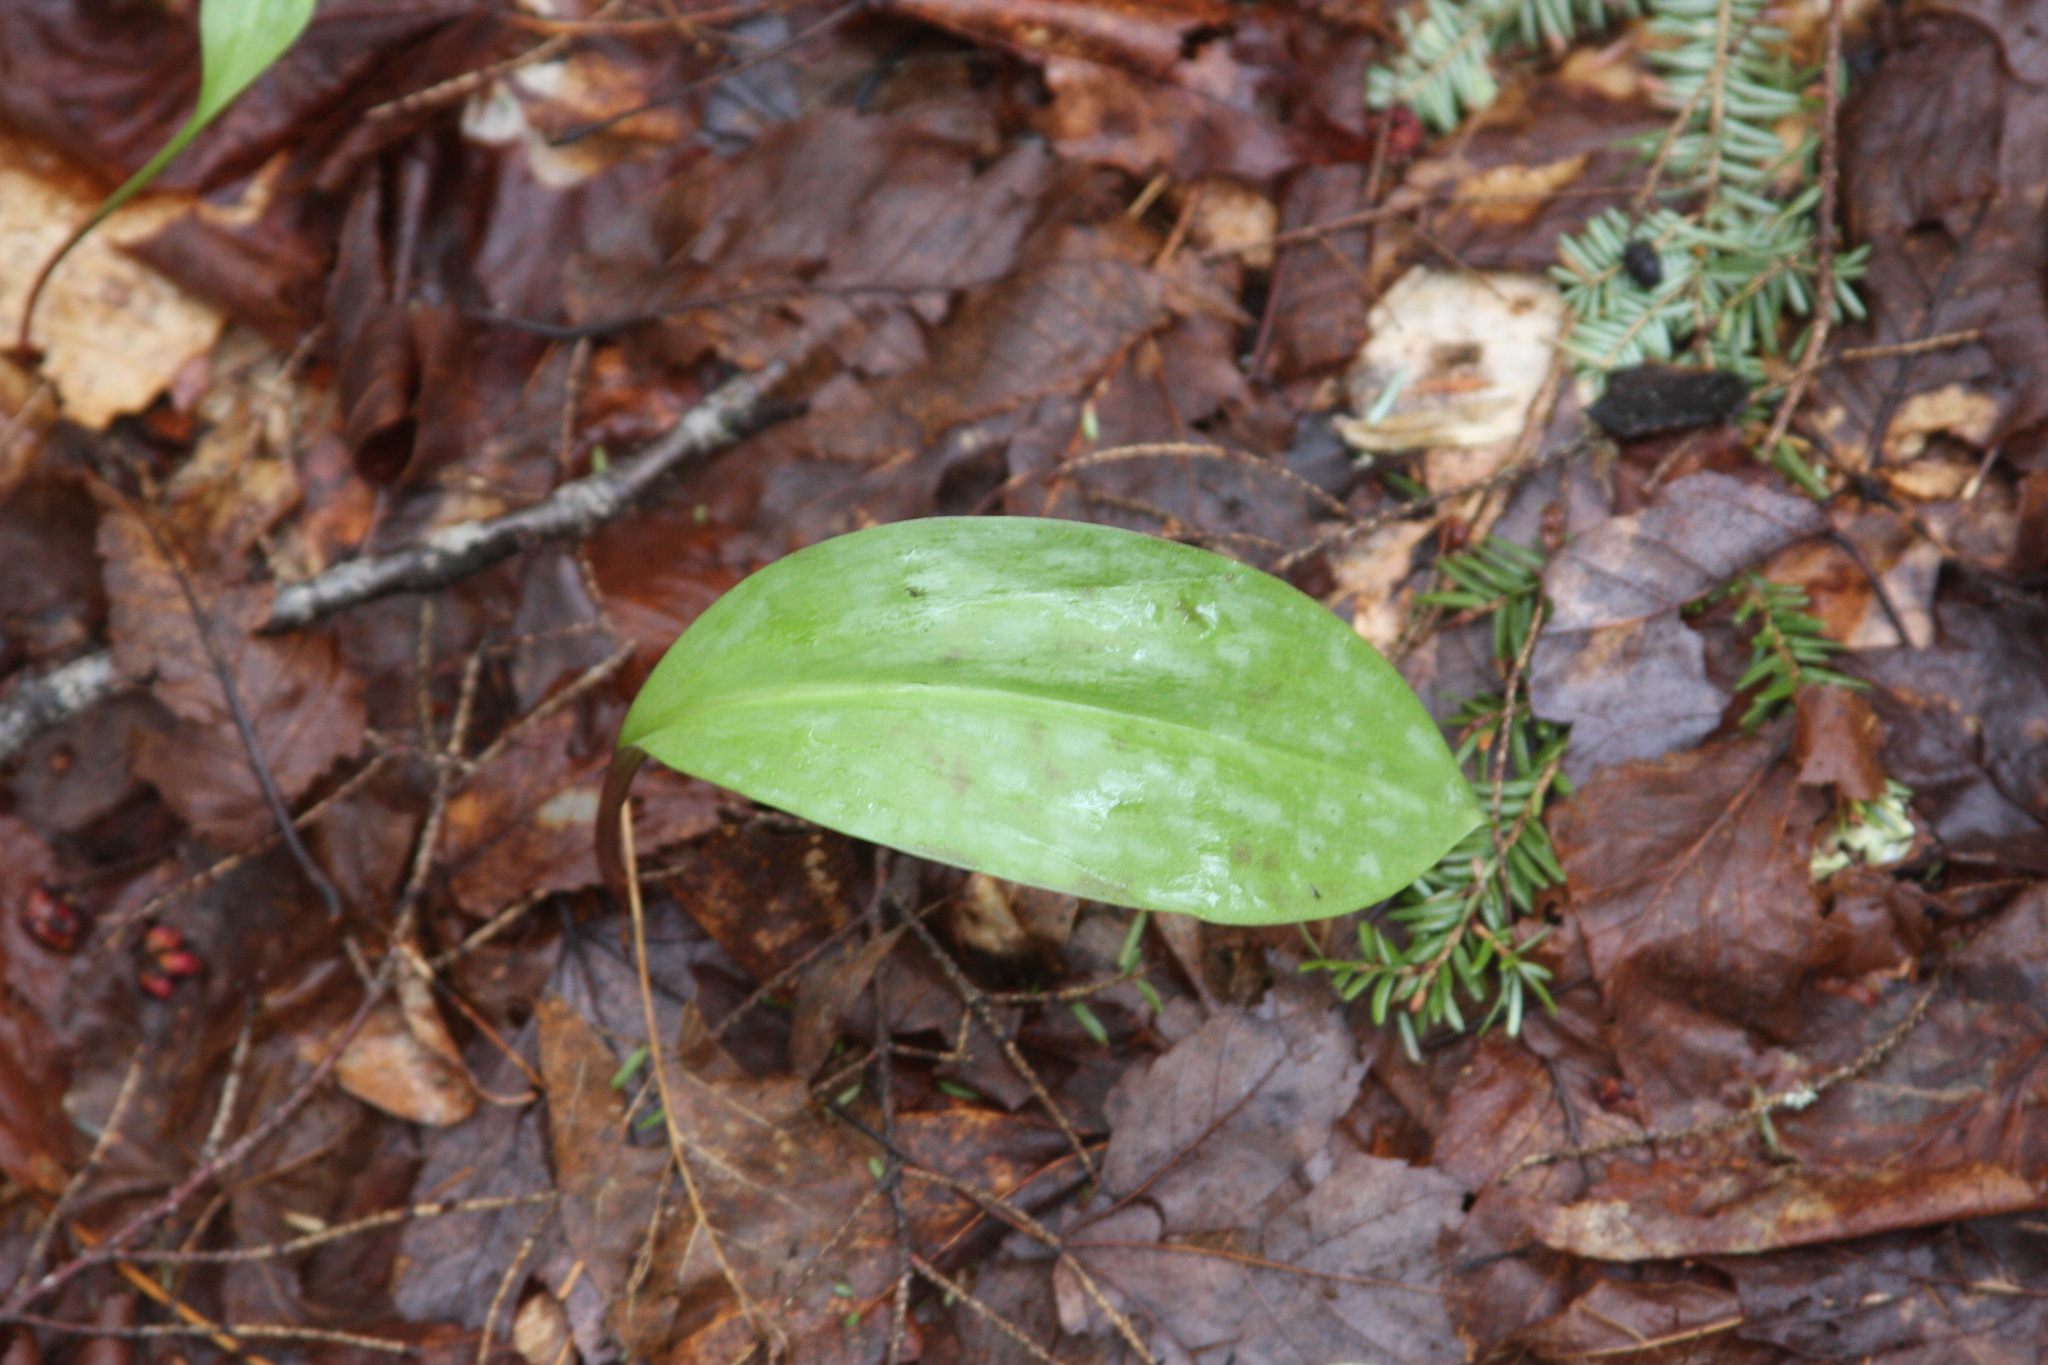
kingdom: Plantae
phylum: Tracheophyta
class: Liliopsida
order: Liliales
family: Liliaceae
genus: Erythronium
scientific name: Erythronium americanum
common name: Yellow adder's-tongue
